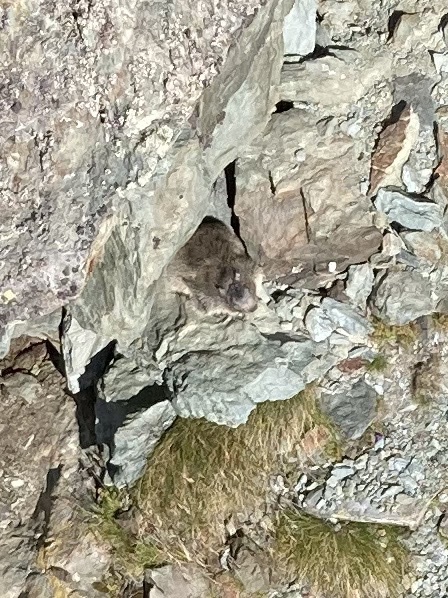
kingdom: Animalia
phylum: Chordata
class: Mammalia
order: Rodentia
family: Sciuridae
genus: Marmota
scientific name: Marmota marmota
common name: Alpine marmot
